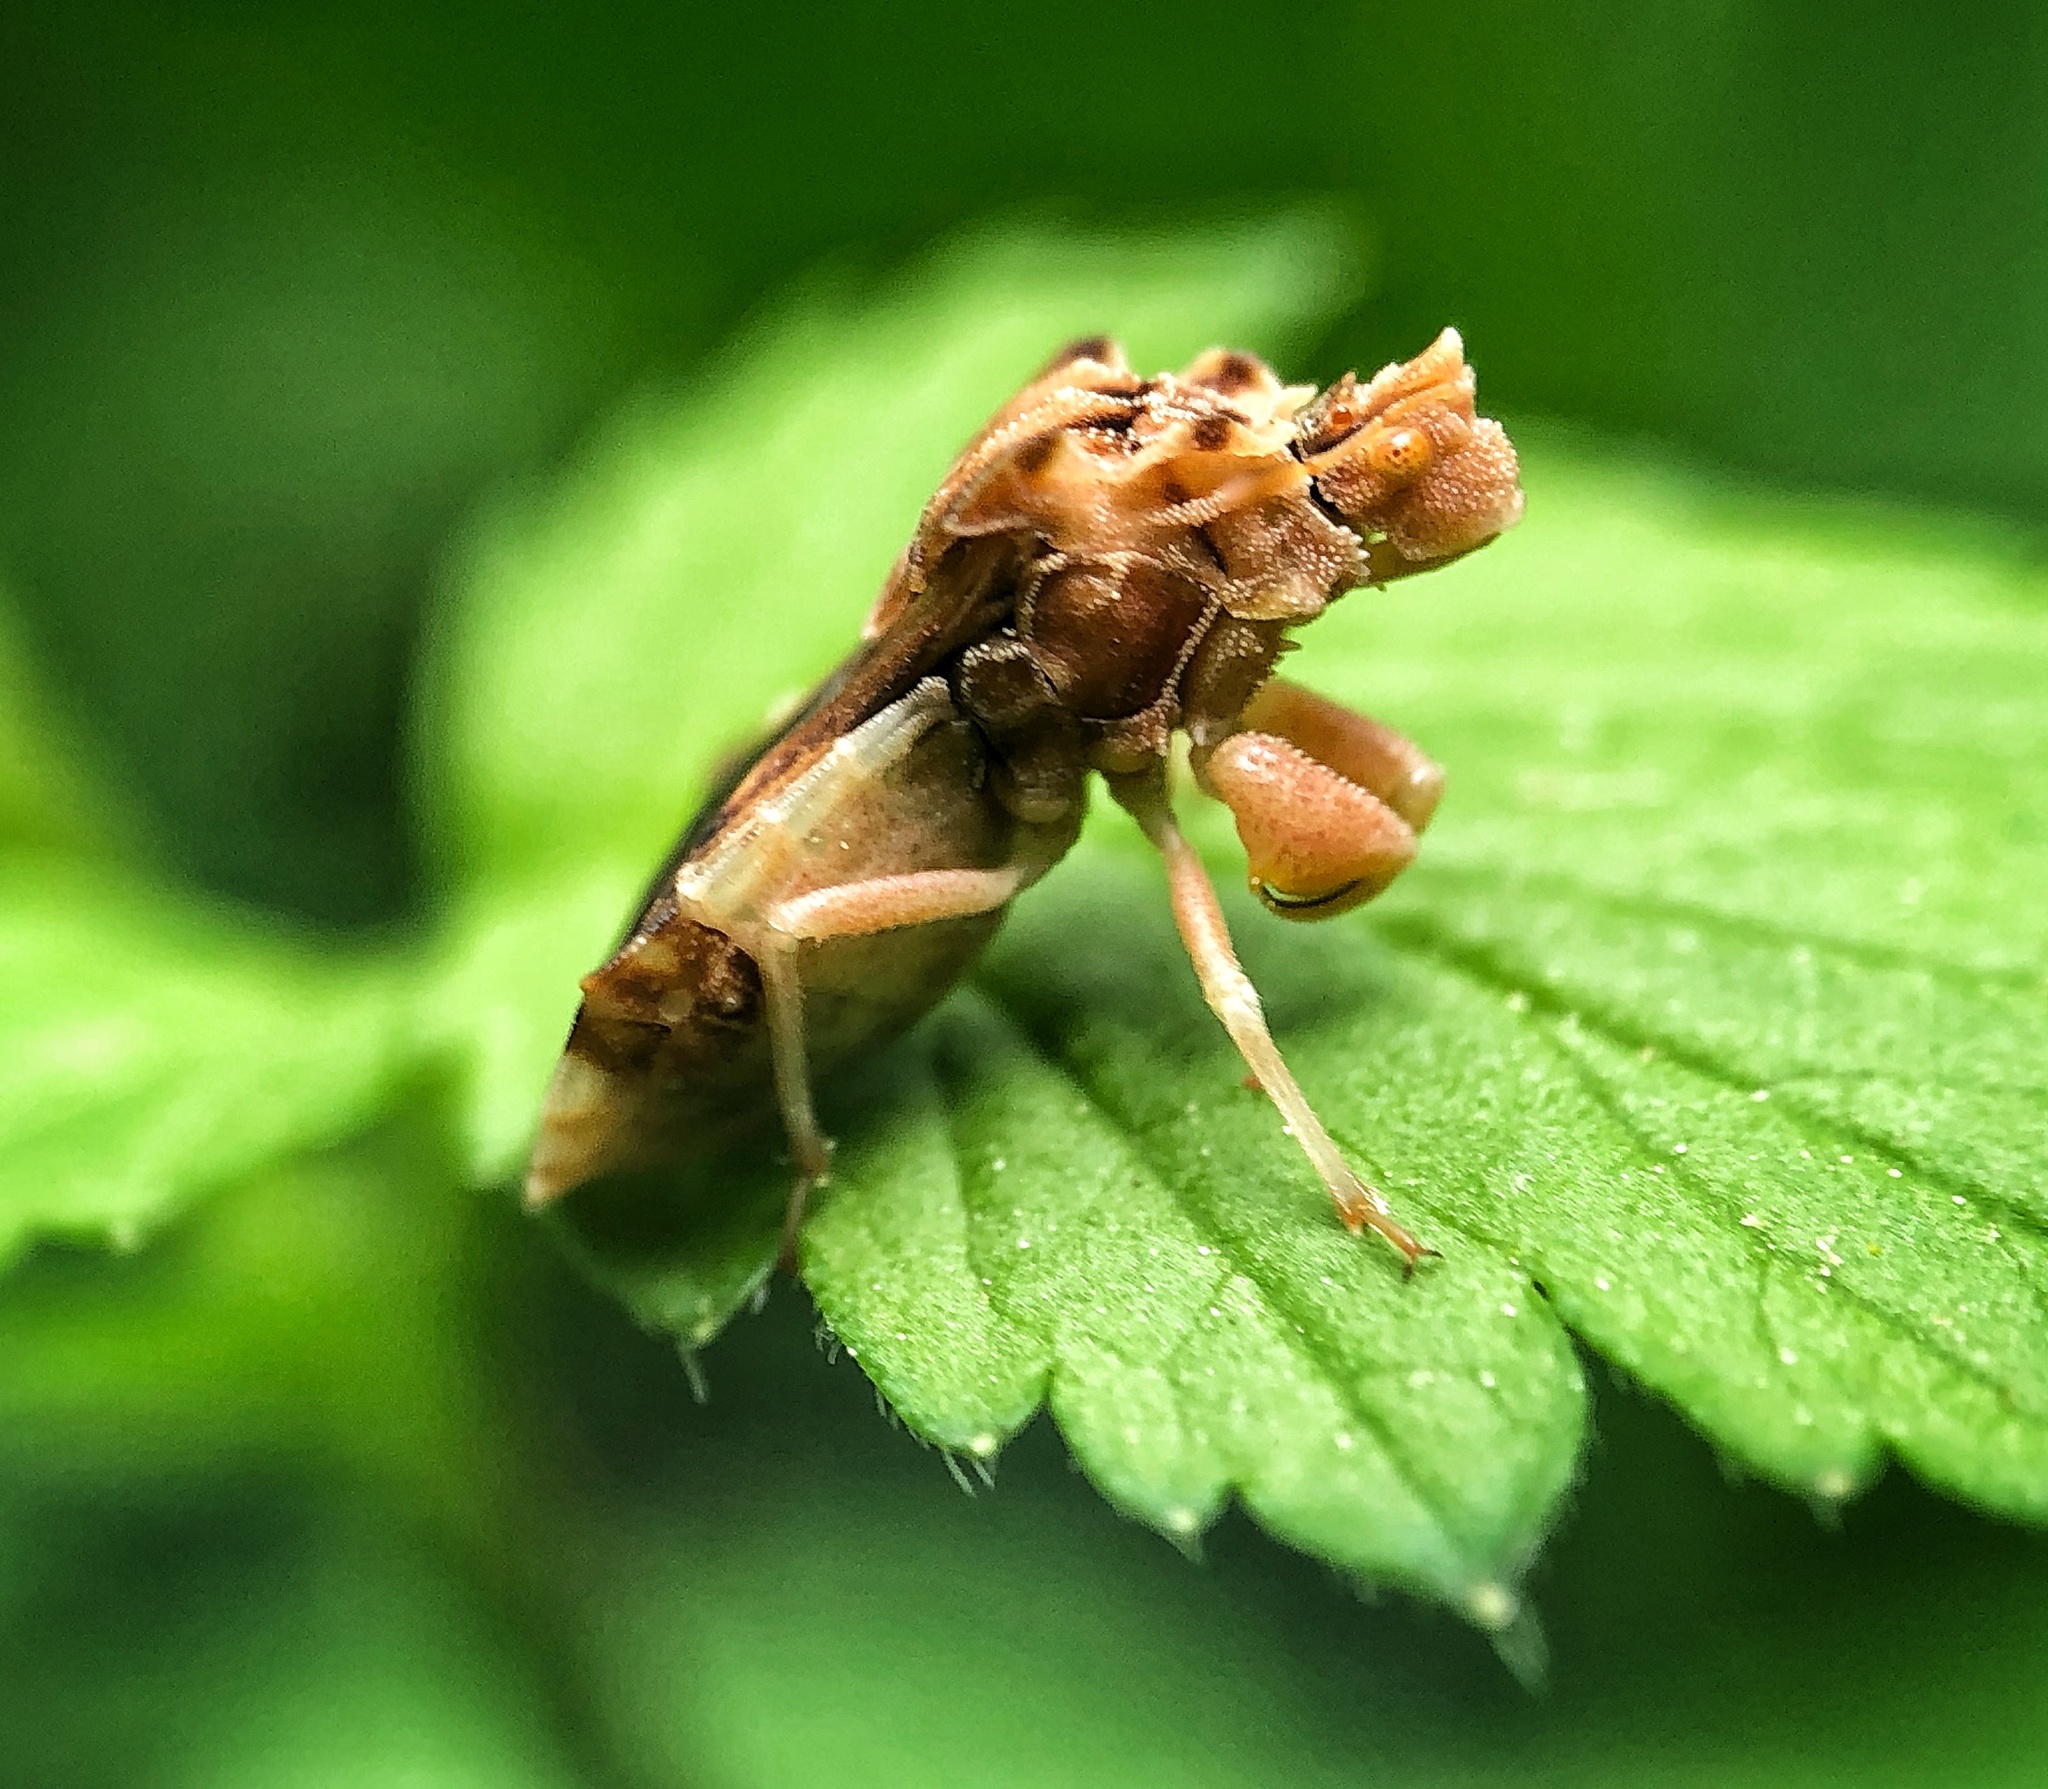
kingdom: Animalia
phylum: Arthropoda
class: Insecta
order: Hemiptera
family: Reduviidae
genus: Phymata
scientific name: Phymata fasciata
